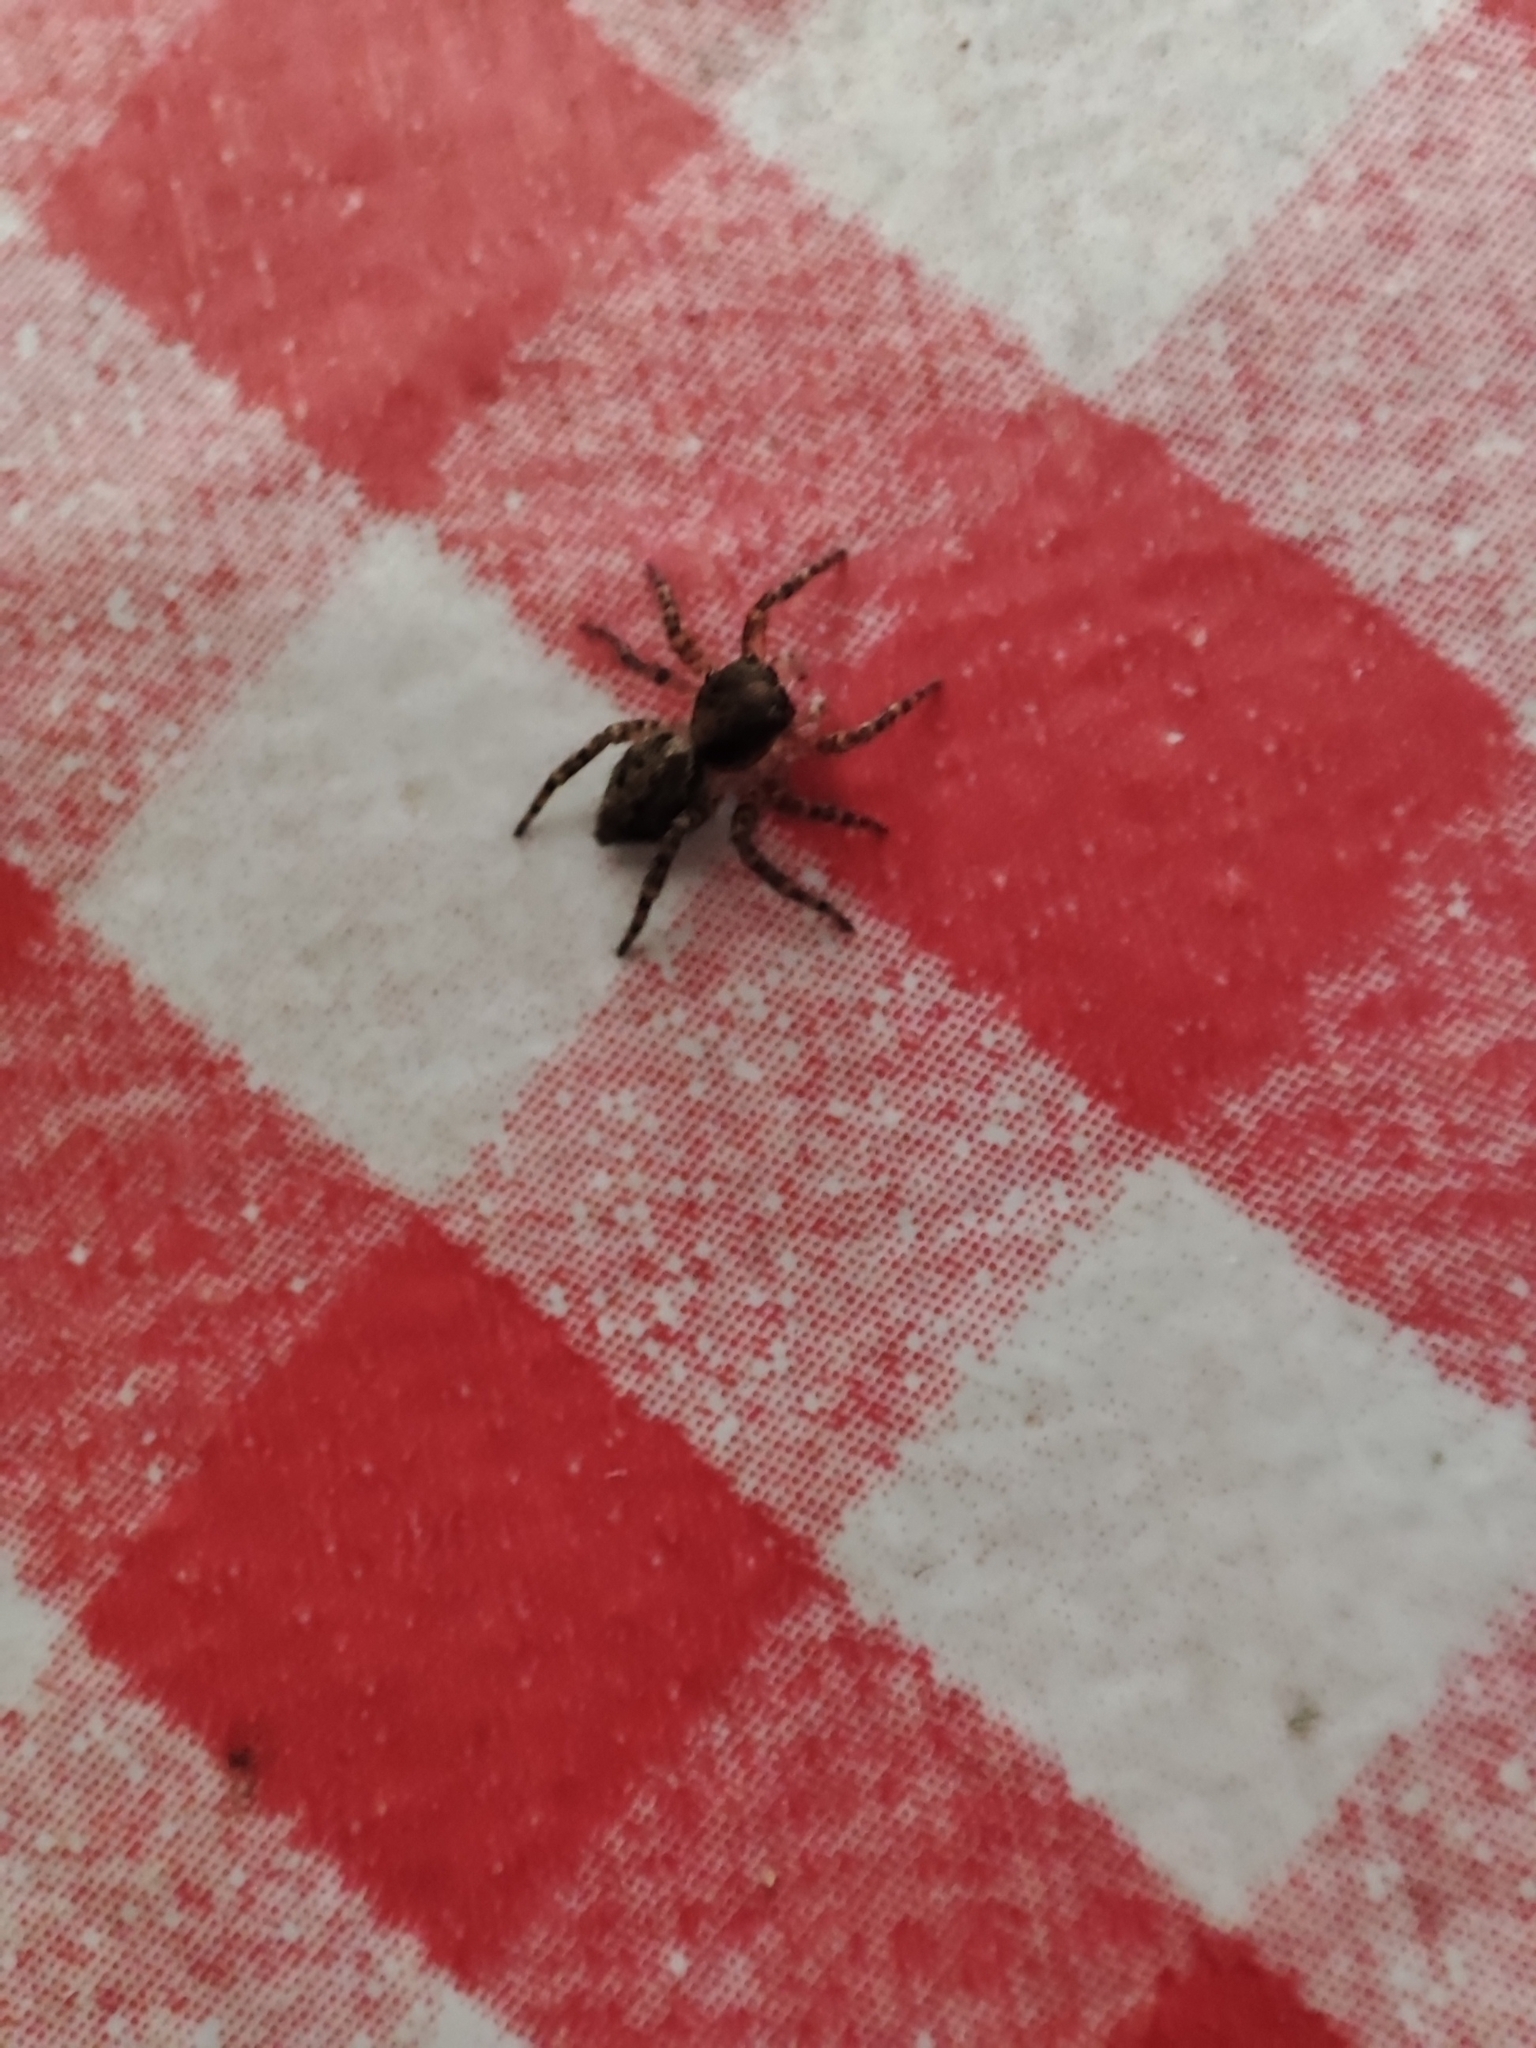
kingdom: Animalia
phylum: Arthropoda
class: Arachnida
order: Araneae
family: Salticidae
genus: Saitis
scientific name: Saitis variegatus
